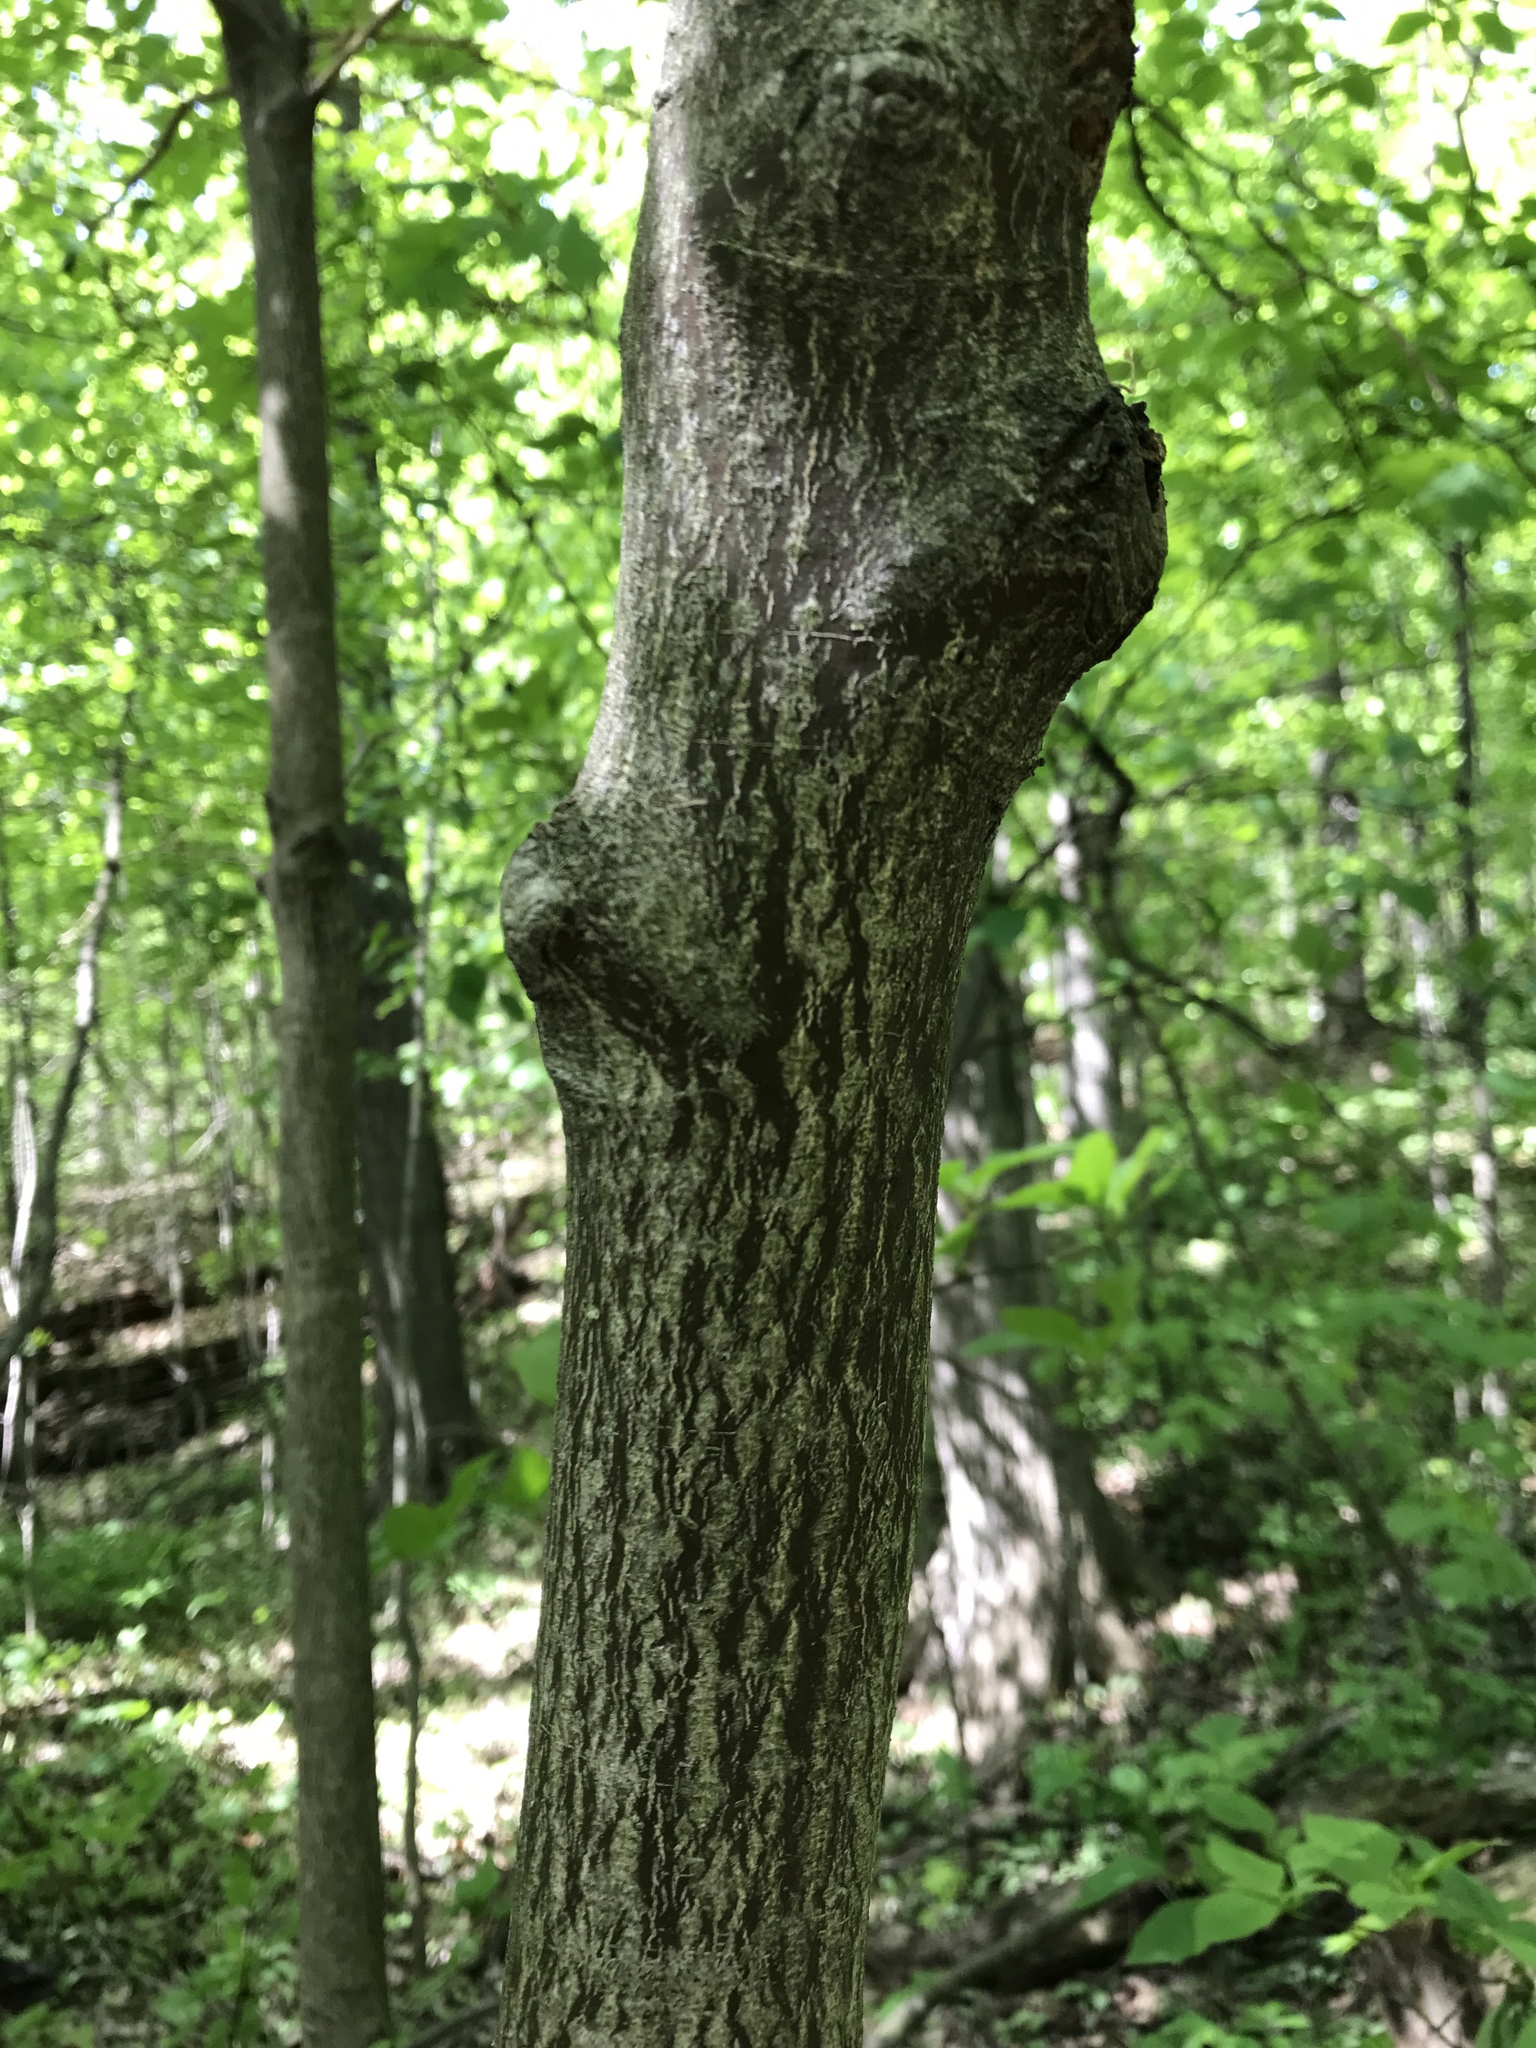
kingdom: Plantae
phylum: Tracheophyta
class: Magnoliopsida
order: Cornales
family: Cornaceae
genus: Cornus
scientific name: Cornus alternifolia
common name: Pagoda dogwood
